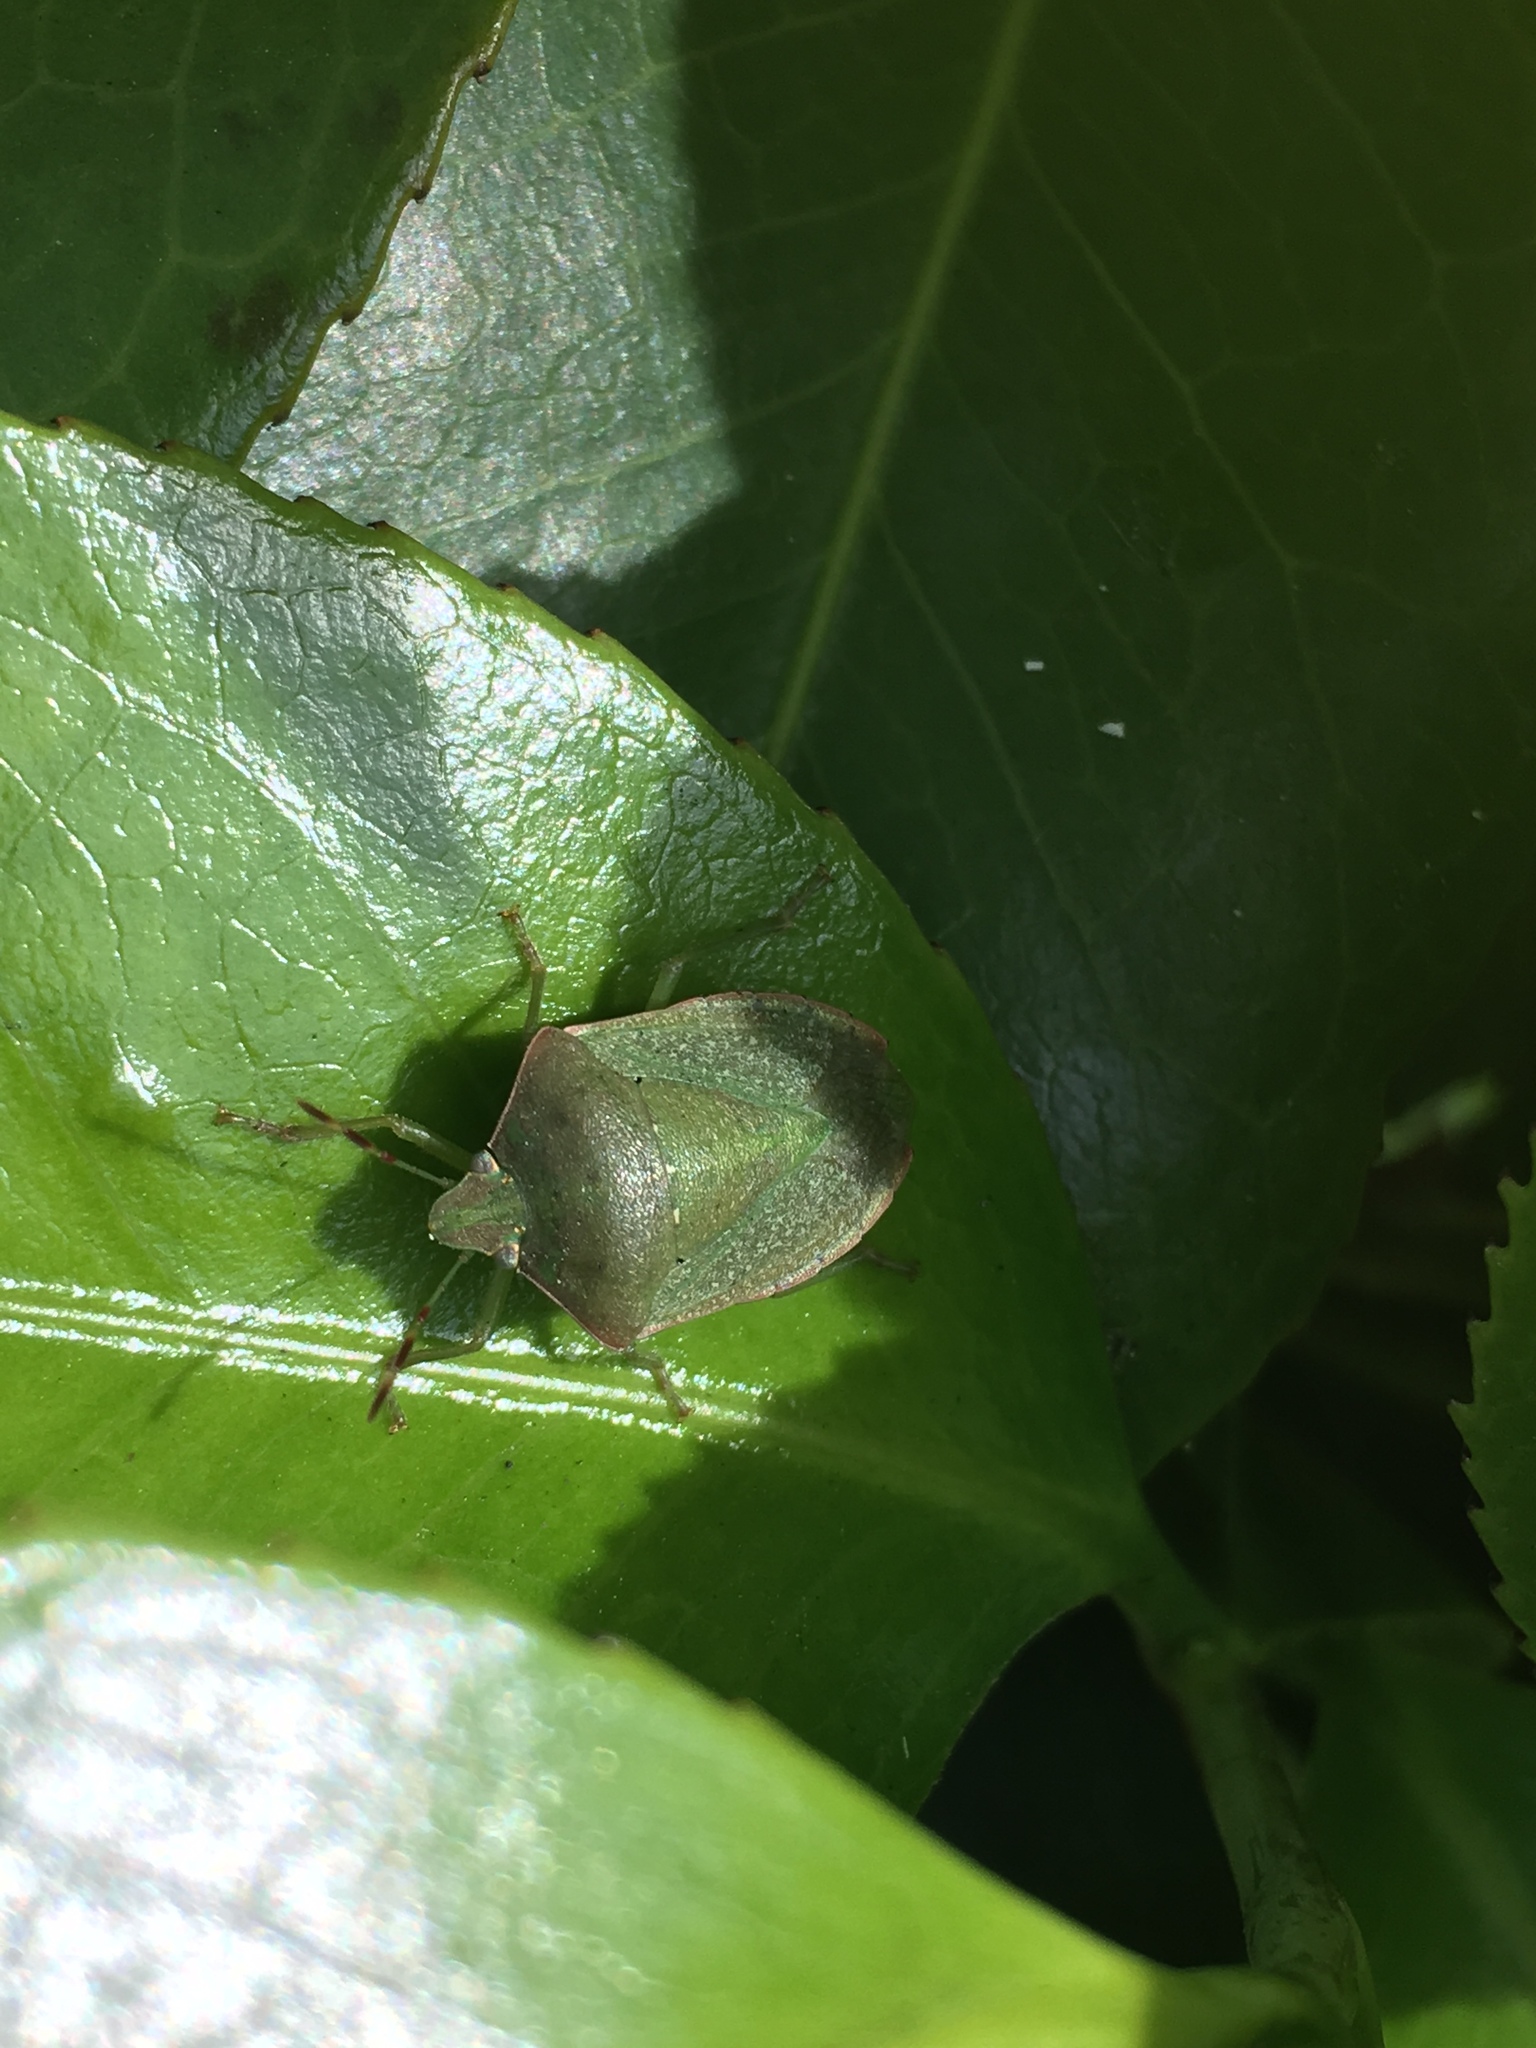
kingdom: Animalia
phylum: Arthropoda
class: Insecta
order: Hemiptera
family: Pentatomidae
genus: Nezara
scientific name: Nezara viridula
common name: Southern green stink bug
